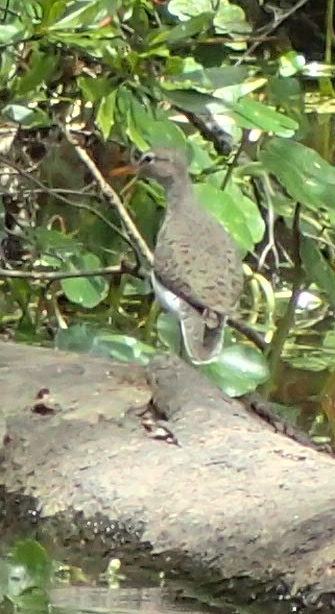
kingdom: Animalia
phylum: Chordata
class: Aves
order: Charadriiformes
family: Scolopacidae
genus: Actitis
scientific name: Actitis macularius
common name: Spotted sandpiper
